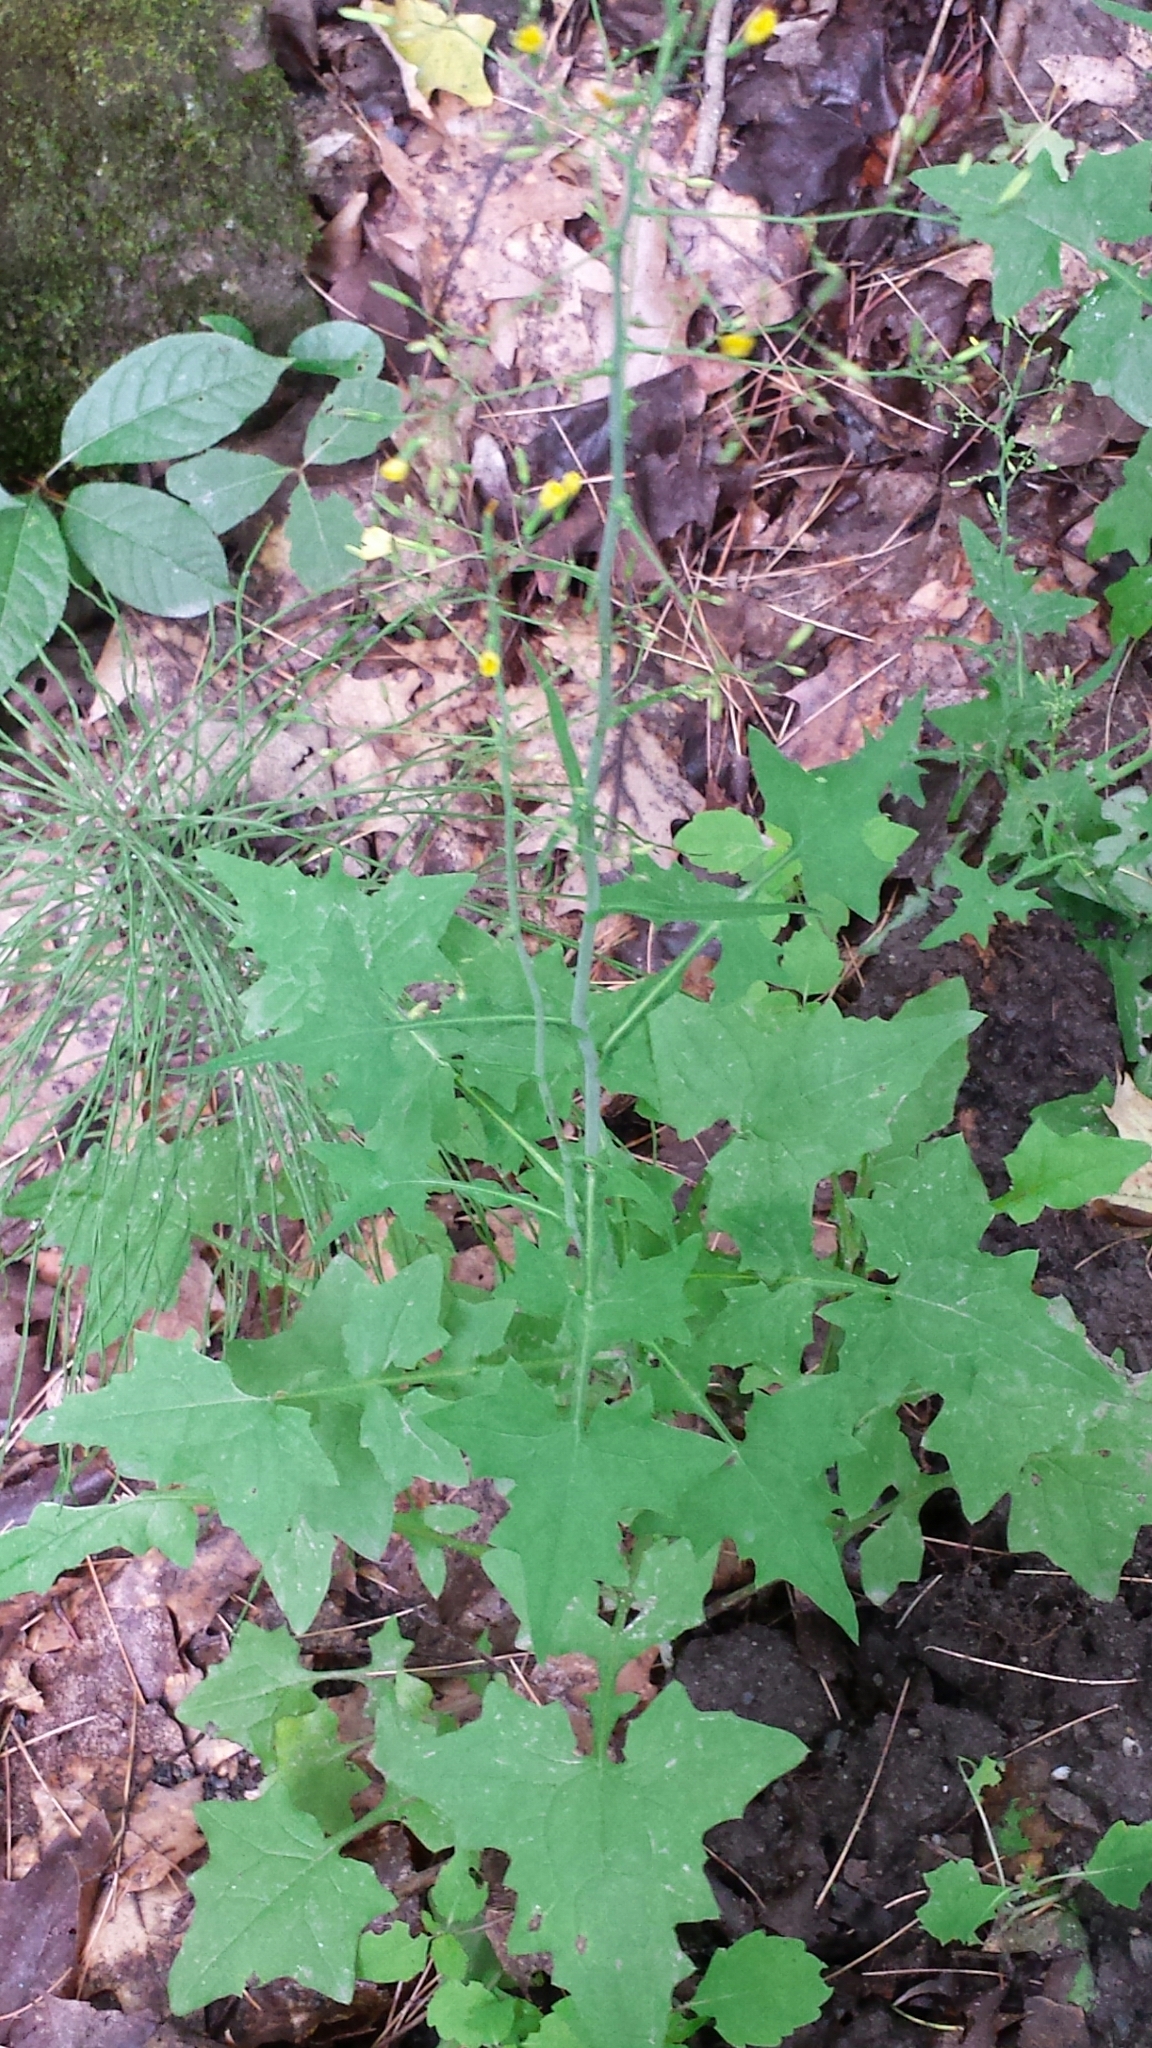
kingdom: Plantae
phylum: Tracheophyta
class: Magnoliopsida
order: Asterales
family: Asteraceae
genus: Mycelis
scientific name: Mycelis muralis
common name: Wall lettuce
